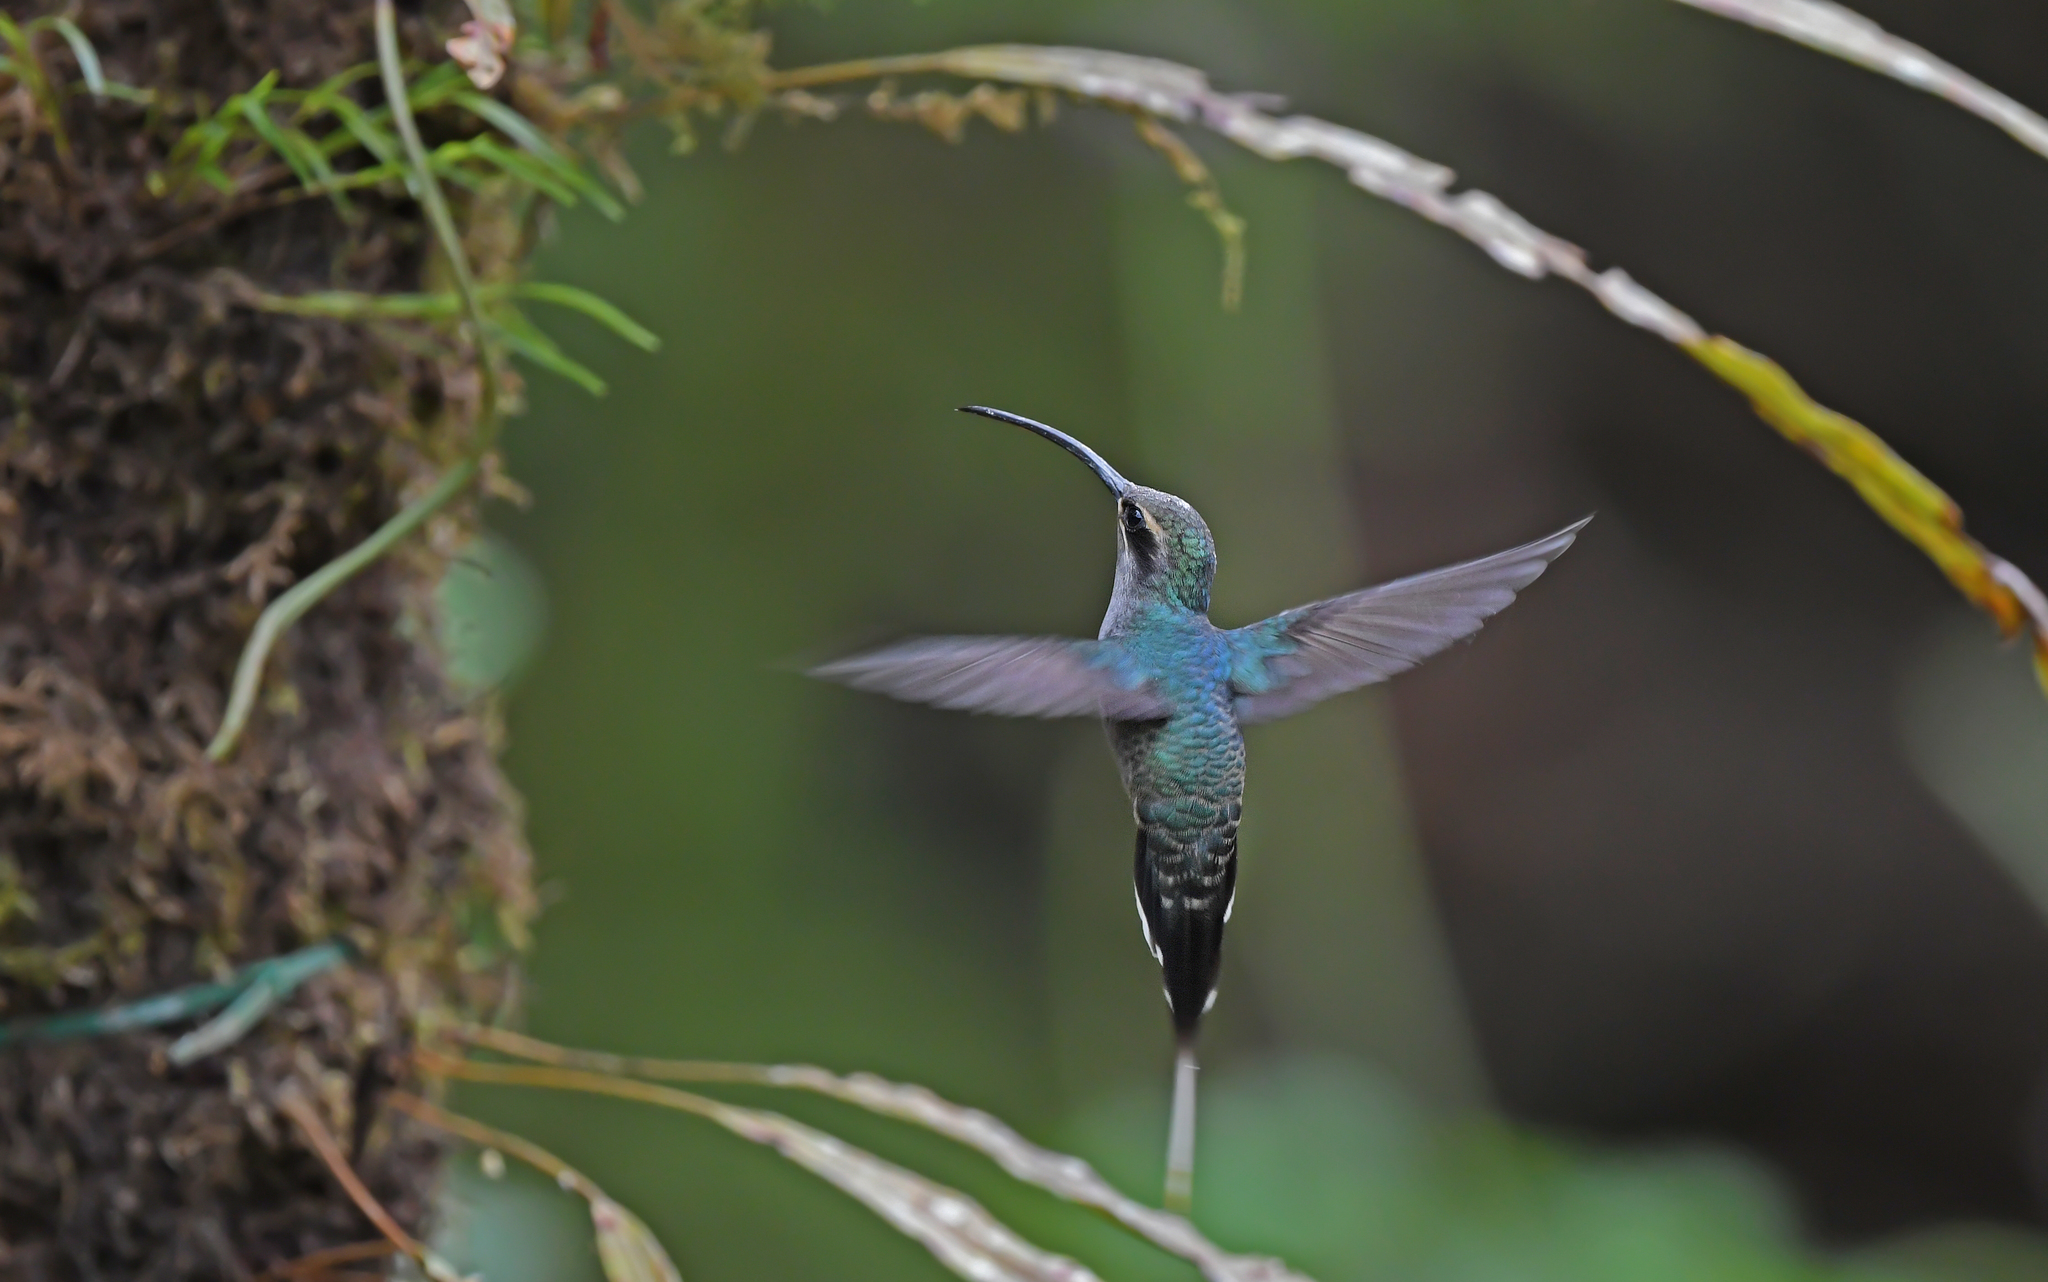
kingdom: Animalia
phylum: Chordata
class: Aves
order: Apodiformes
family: Trochilidae
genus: Phaethornis
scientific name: Phaethornis guy
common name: Green hermit
